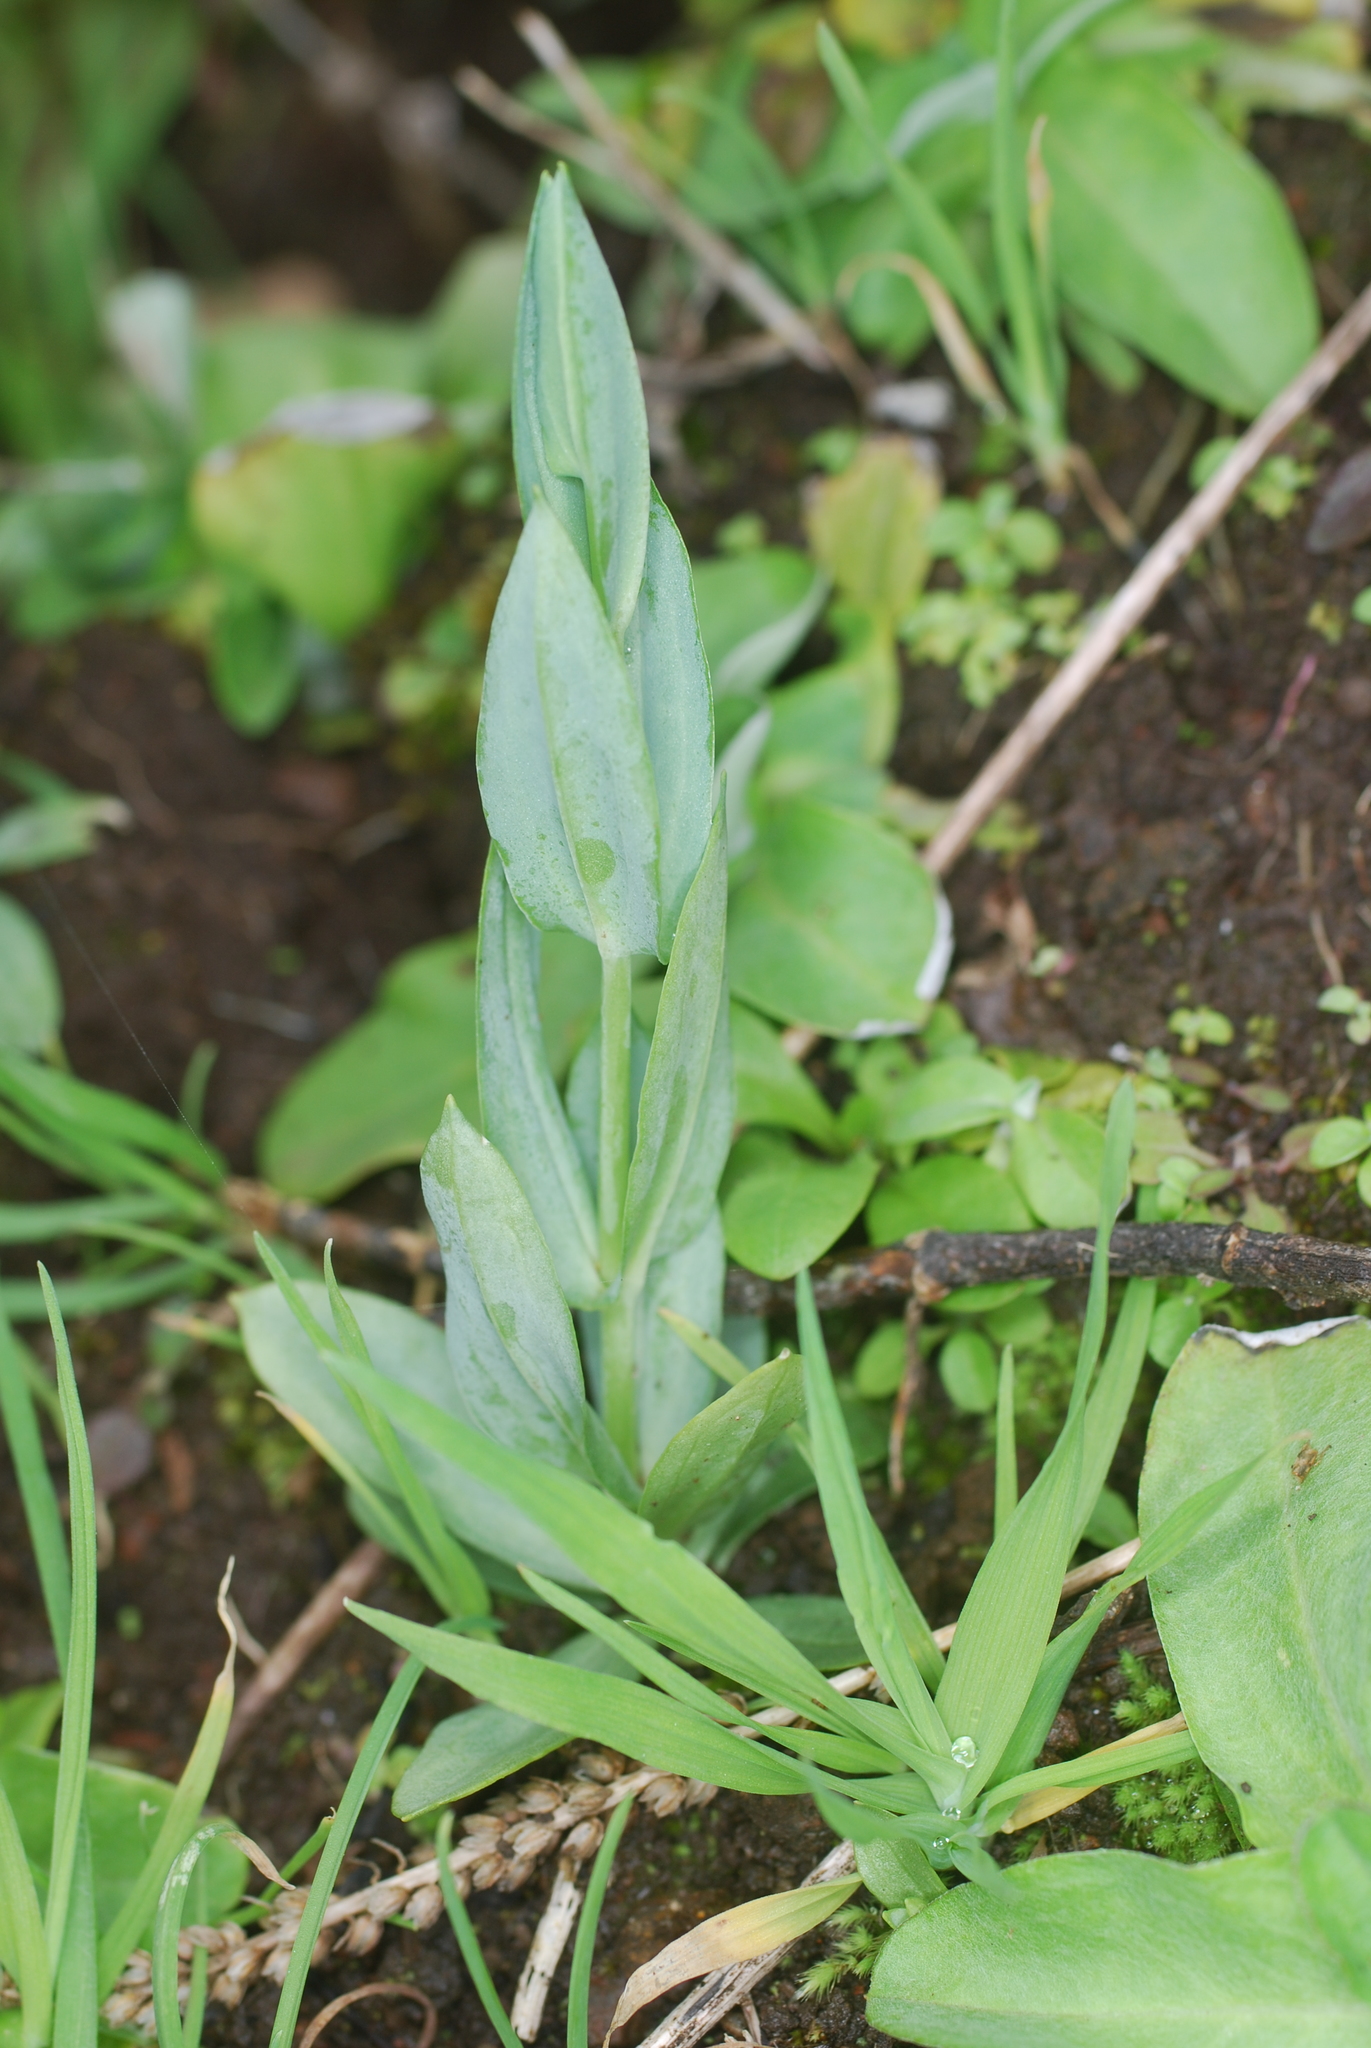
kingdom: Plantae
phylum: Tracheophyta
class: Magnoliopsida
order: Gentianales
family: Gentianaceae
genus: Blackstonia
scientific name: Blackstonia perfoliata
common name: Yellow-wort
